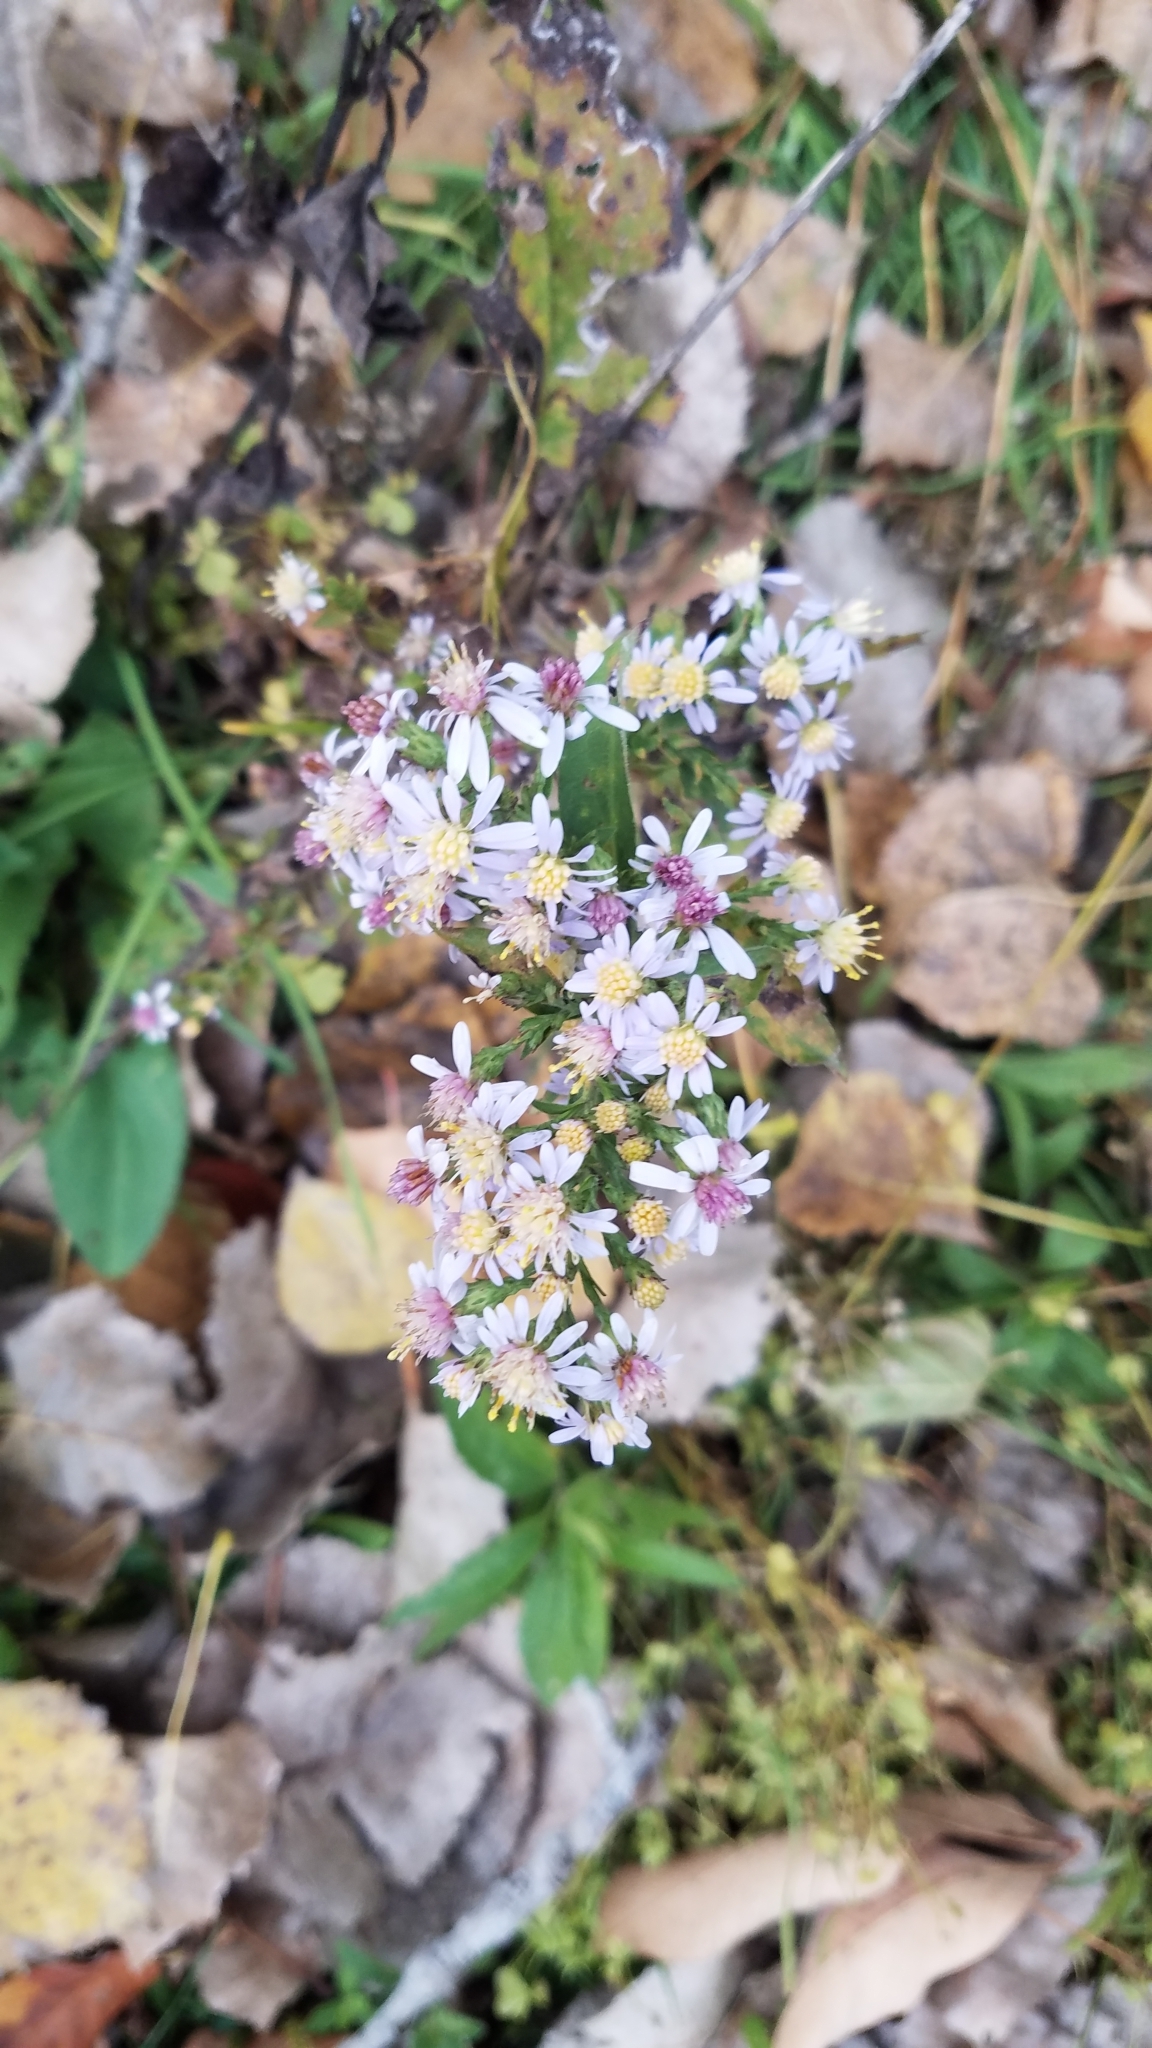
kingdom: Plantae
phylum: Tracheophyta
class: Magnoliopsida
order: Asterales
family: Asteraceae
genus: Symphyotrichum
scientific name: Symphyotrichum cordifolium
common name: Beeweed
